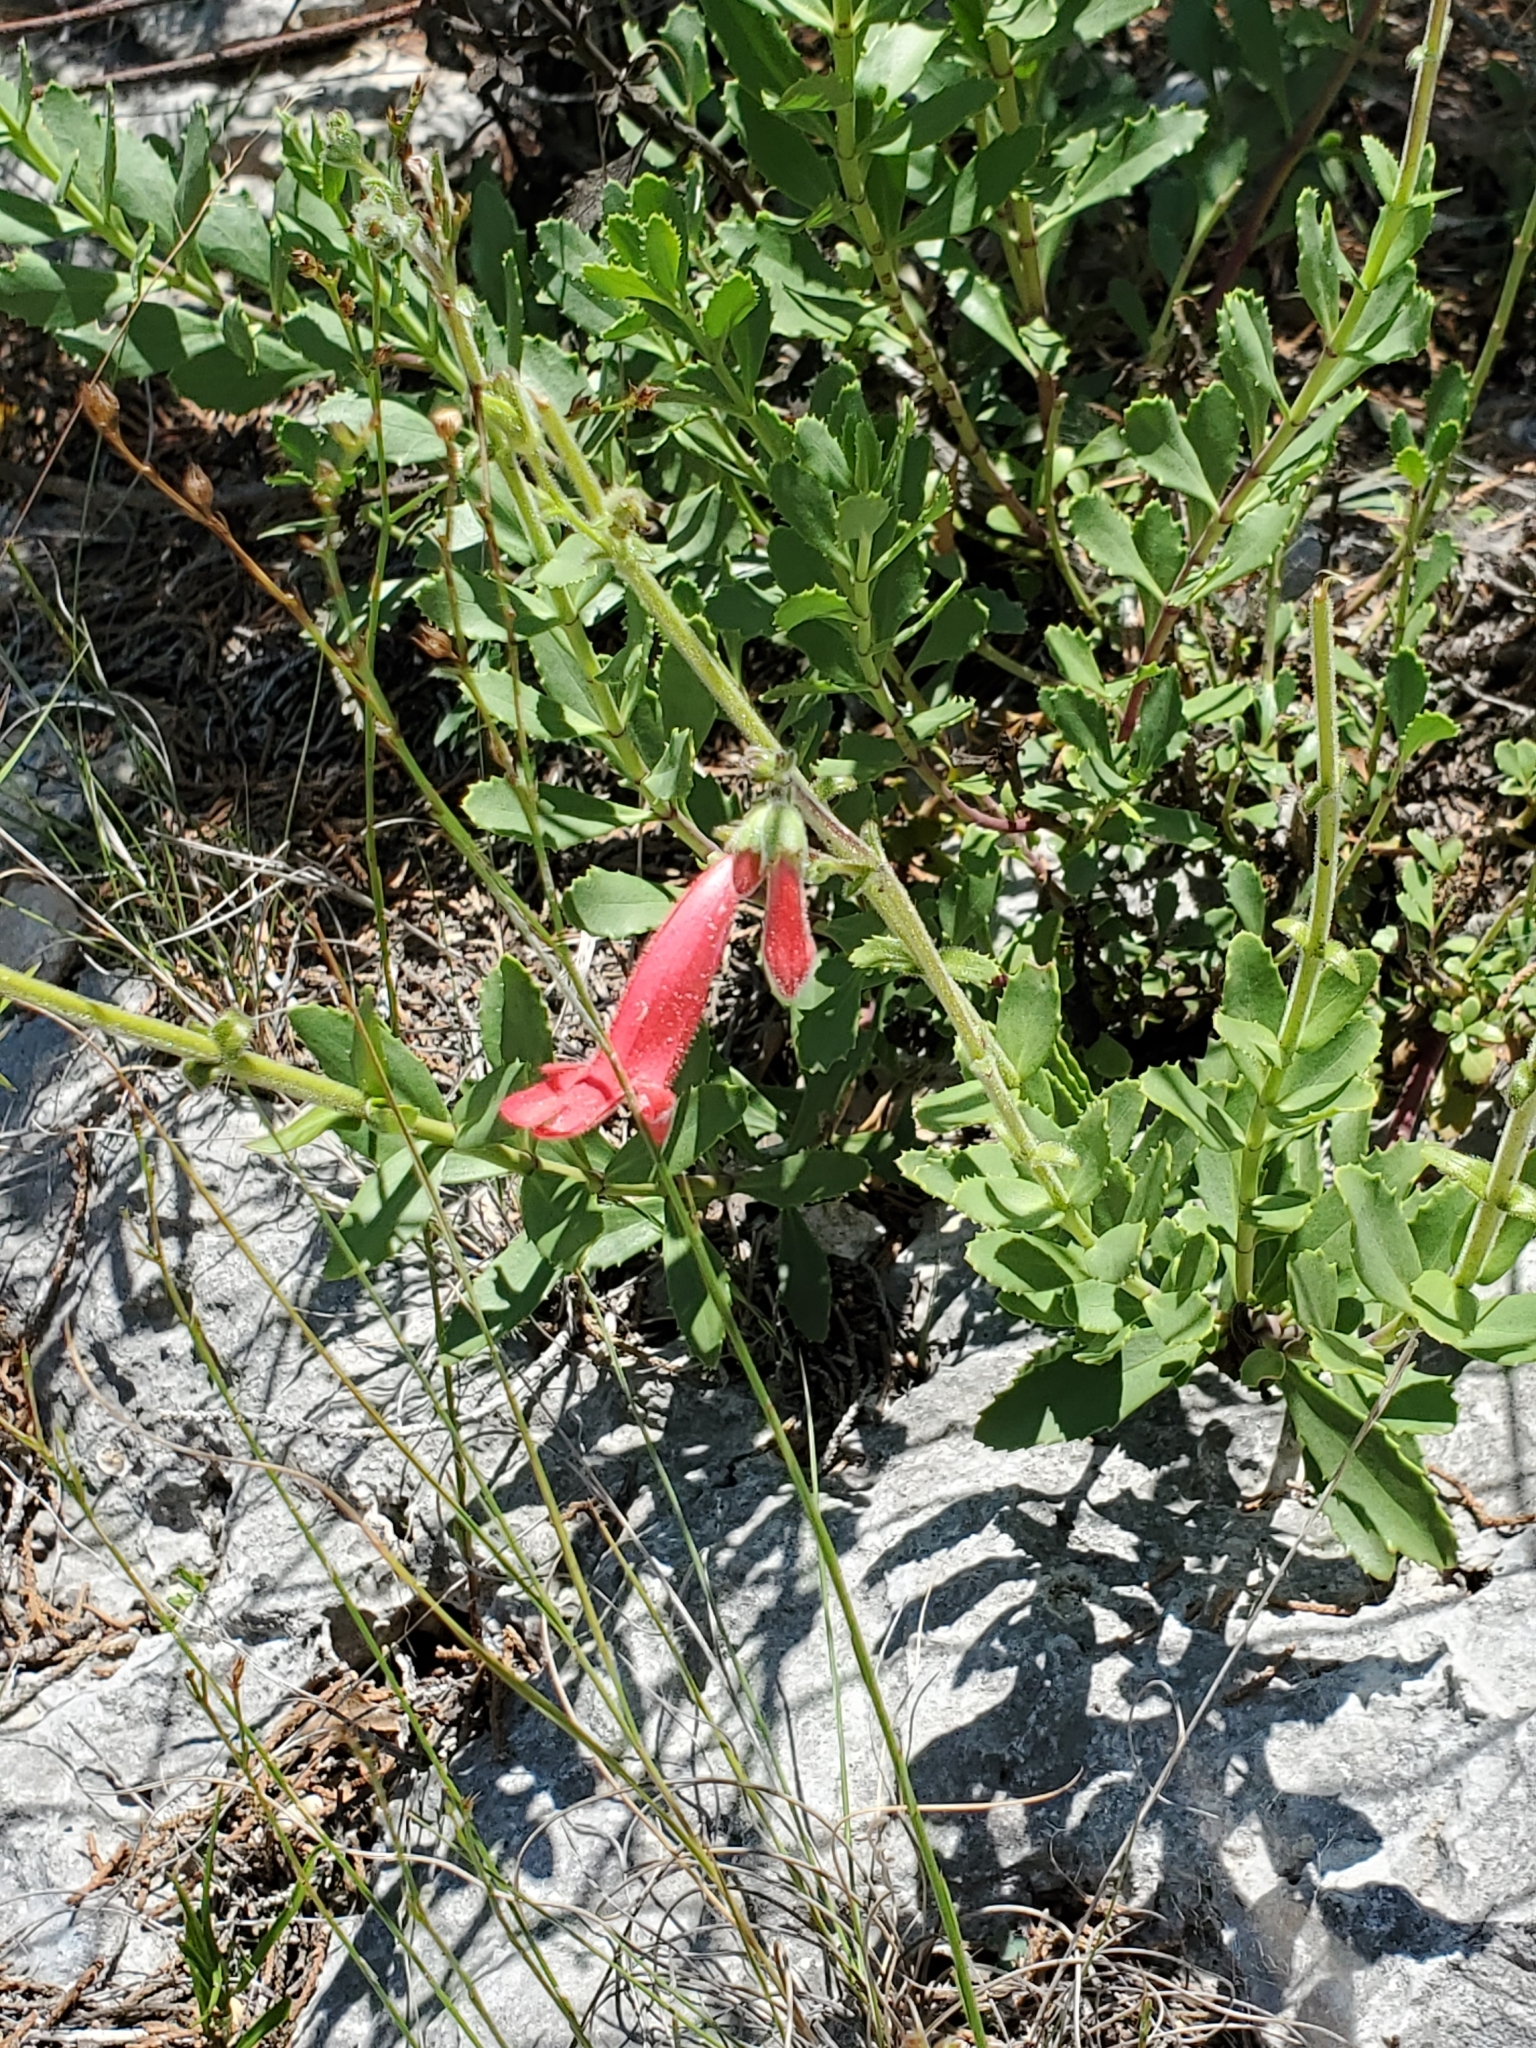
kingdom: Plantae
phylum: Tracheophyta
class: Magnoliopsida
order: Lamiales
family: Plantaginaceae
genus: Penstemon
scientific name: Penstemon baccharifolius
